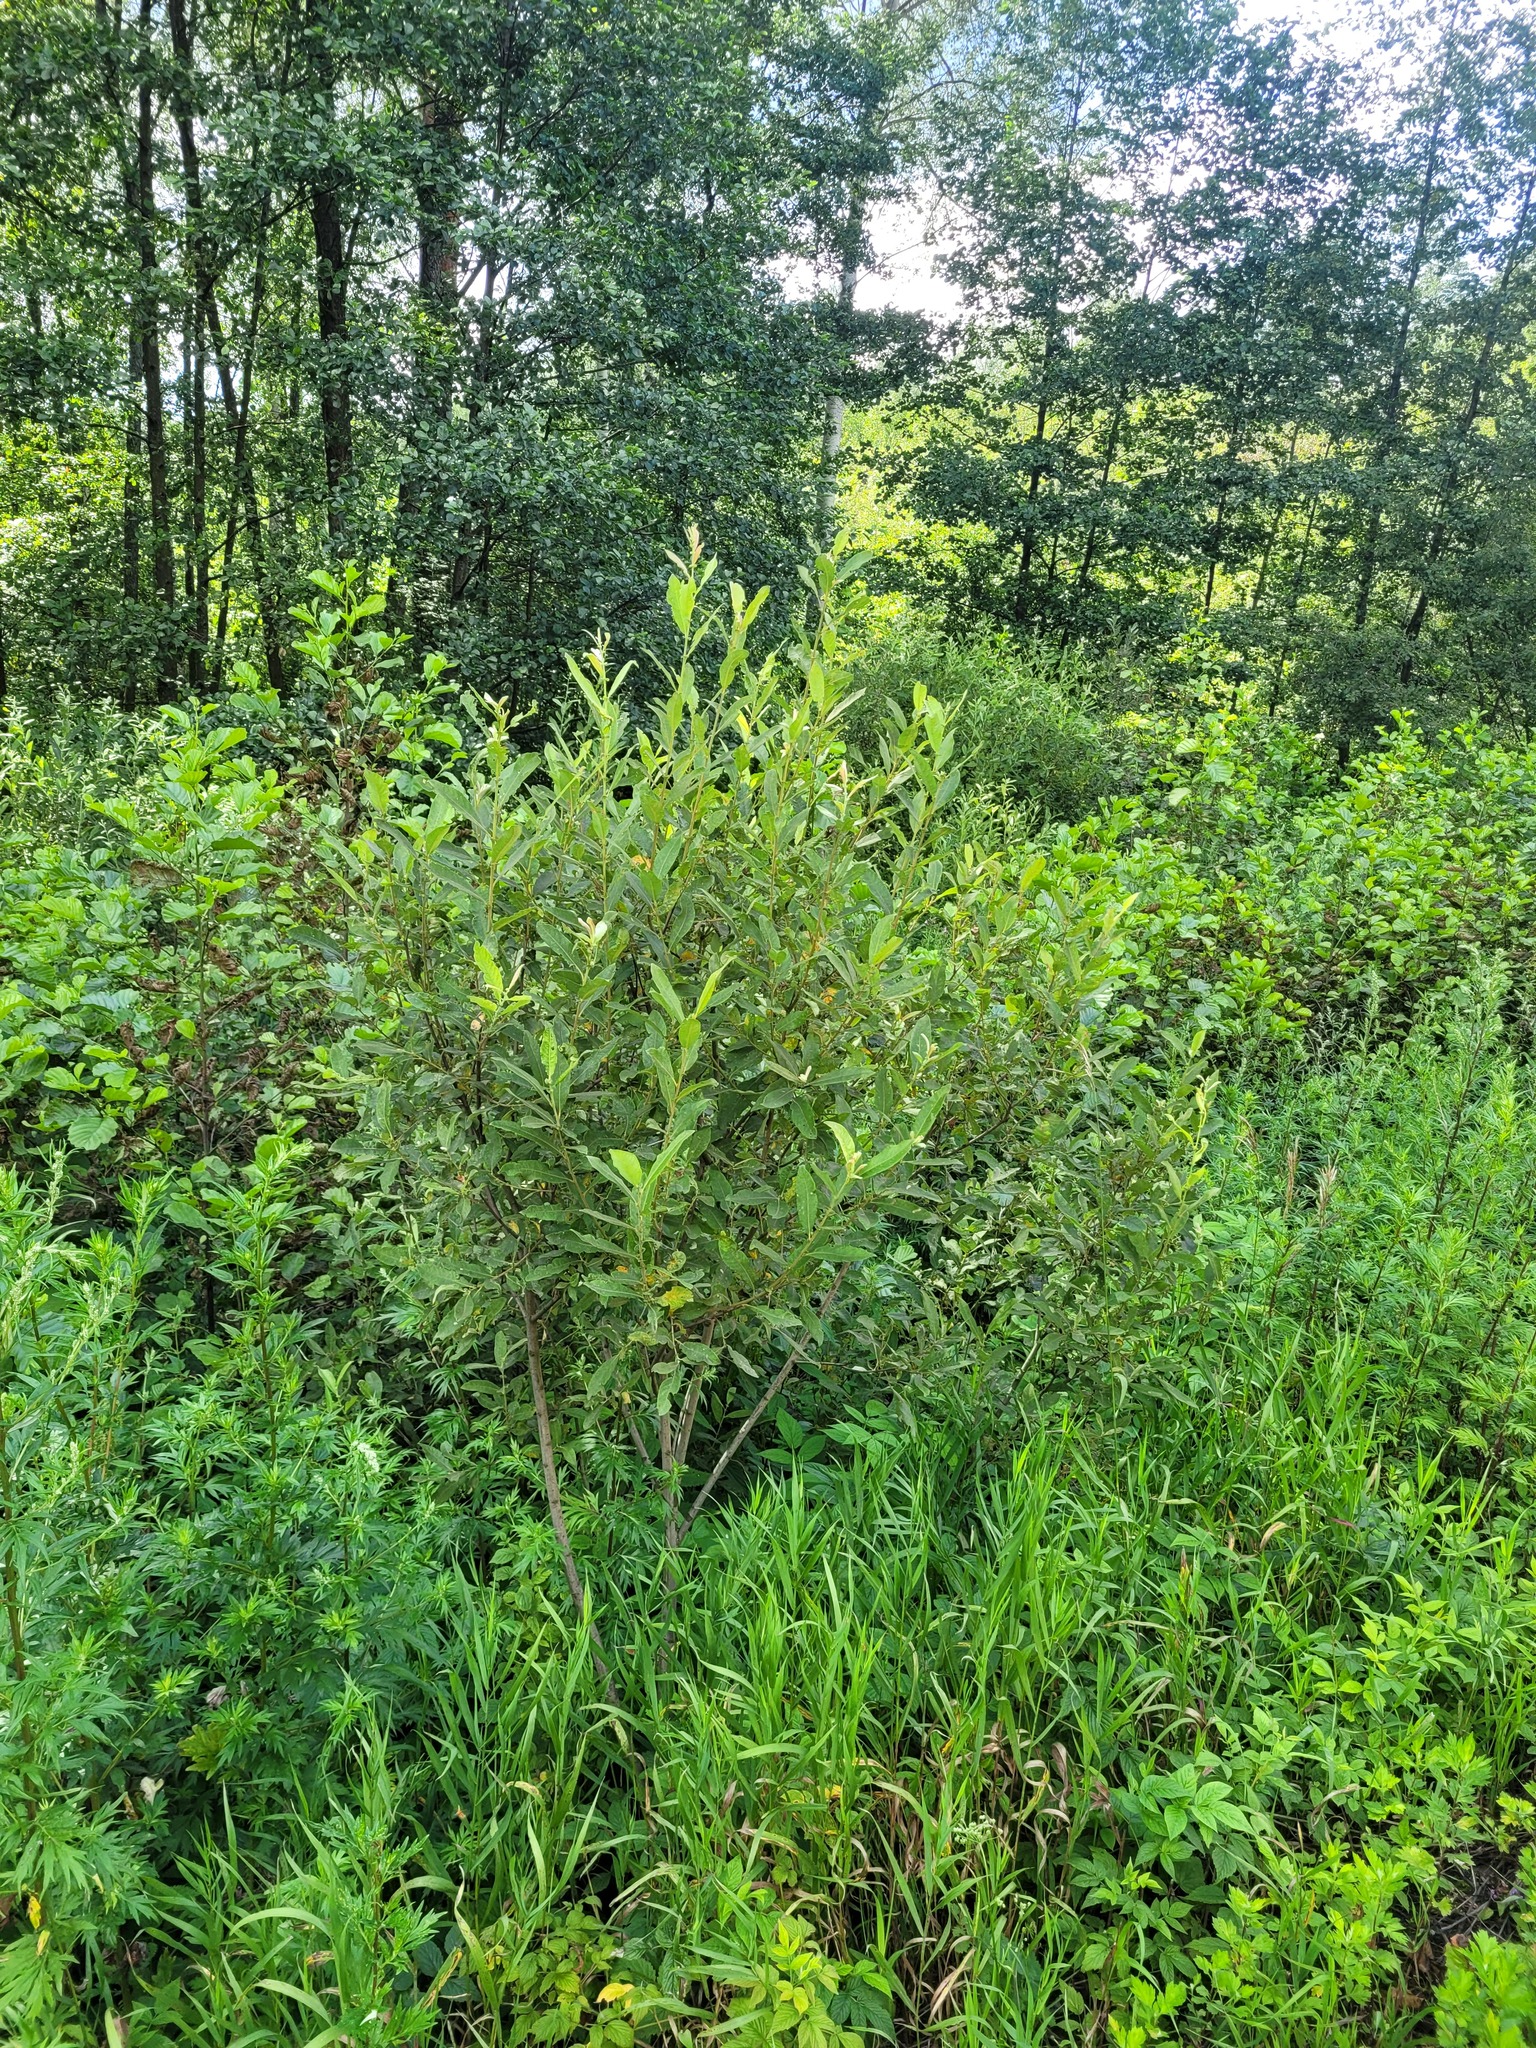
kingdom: Plantae
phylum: Tracheophyta
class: Magnoliopsida
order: Malpighiales
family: Salicaceae
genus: Salix
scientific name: Salix cinerea
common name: Common sallow
